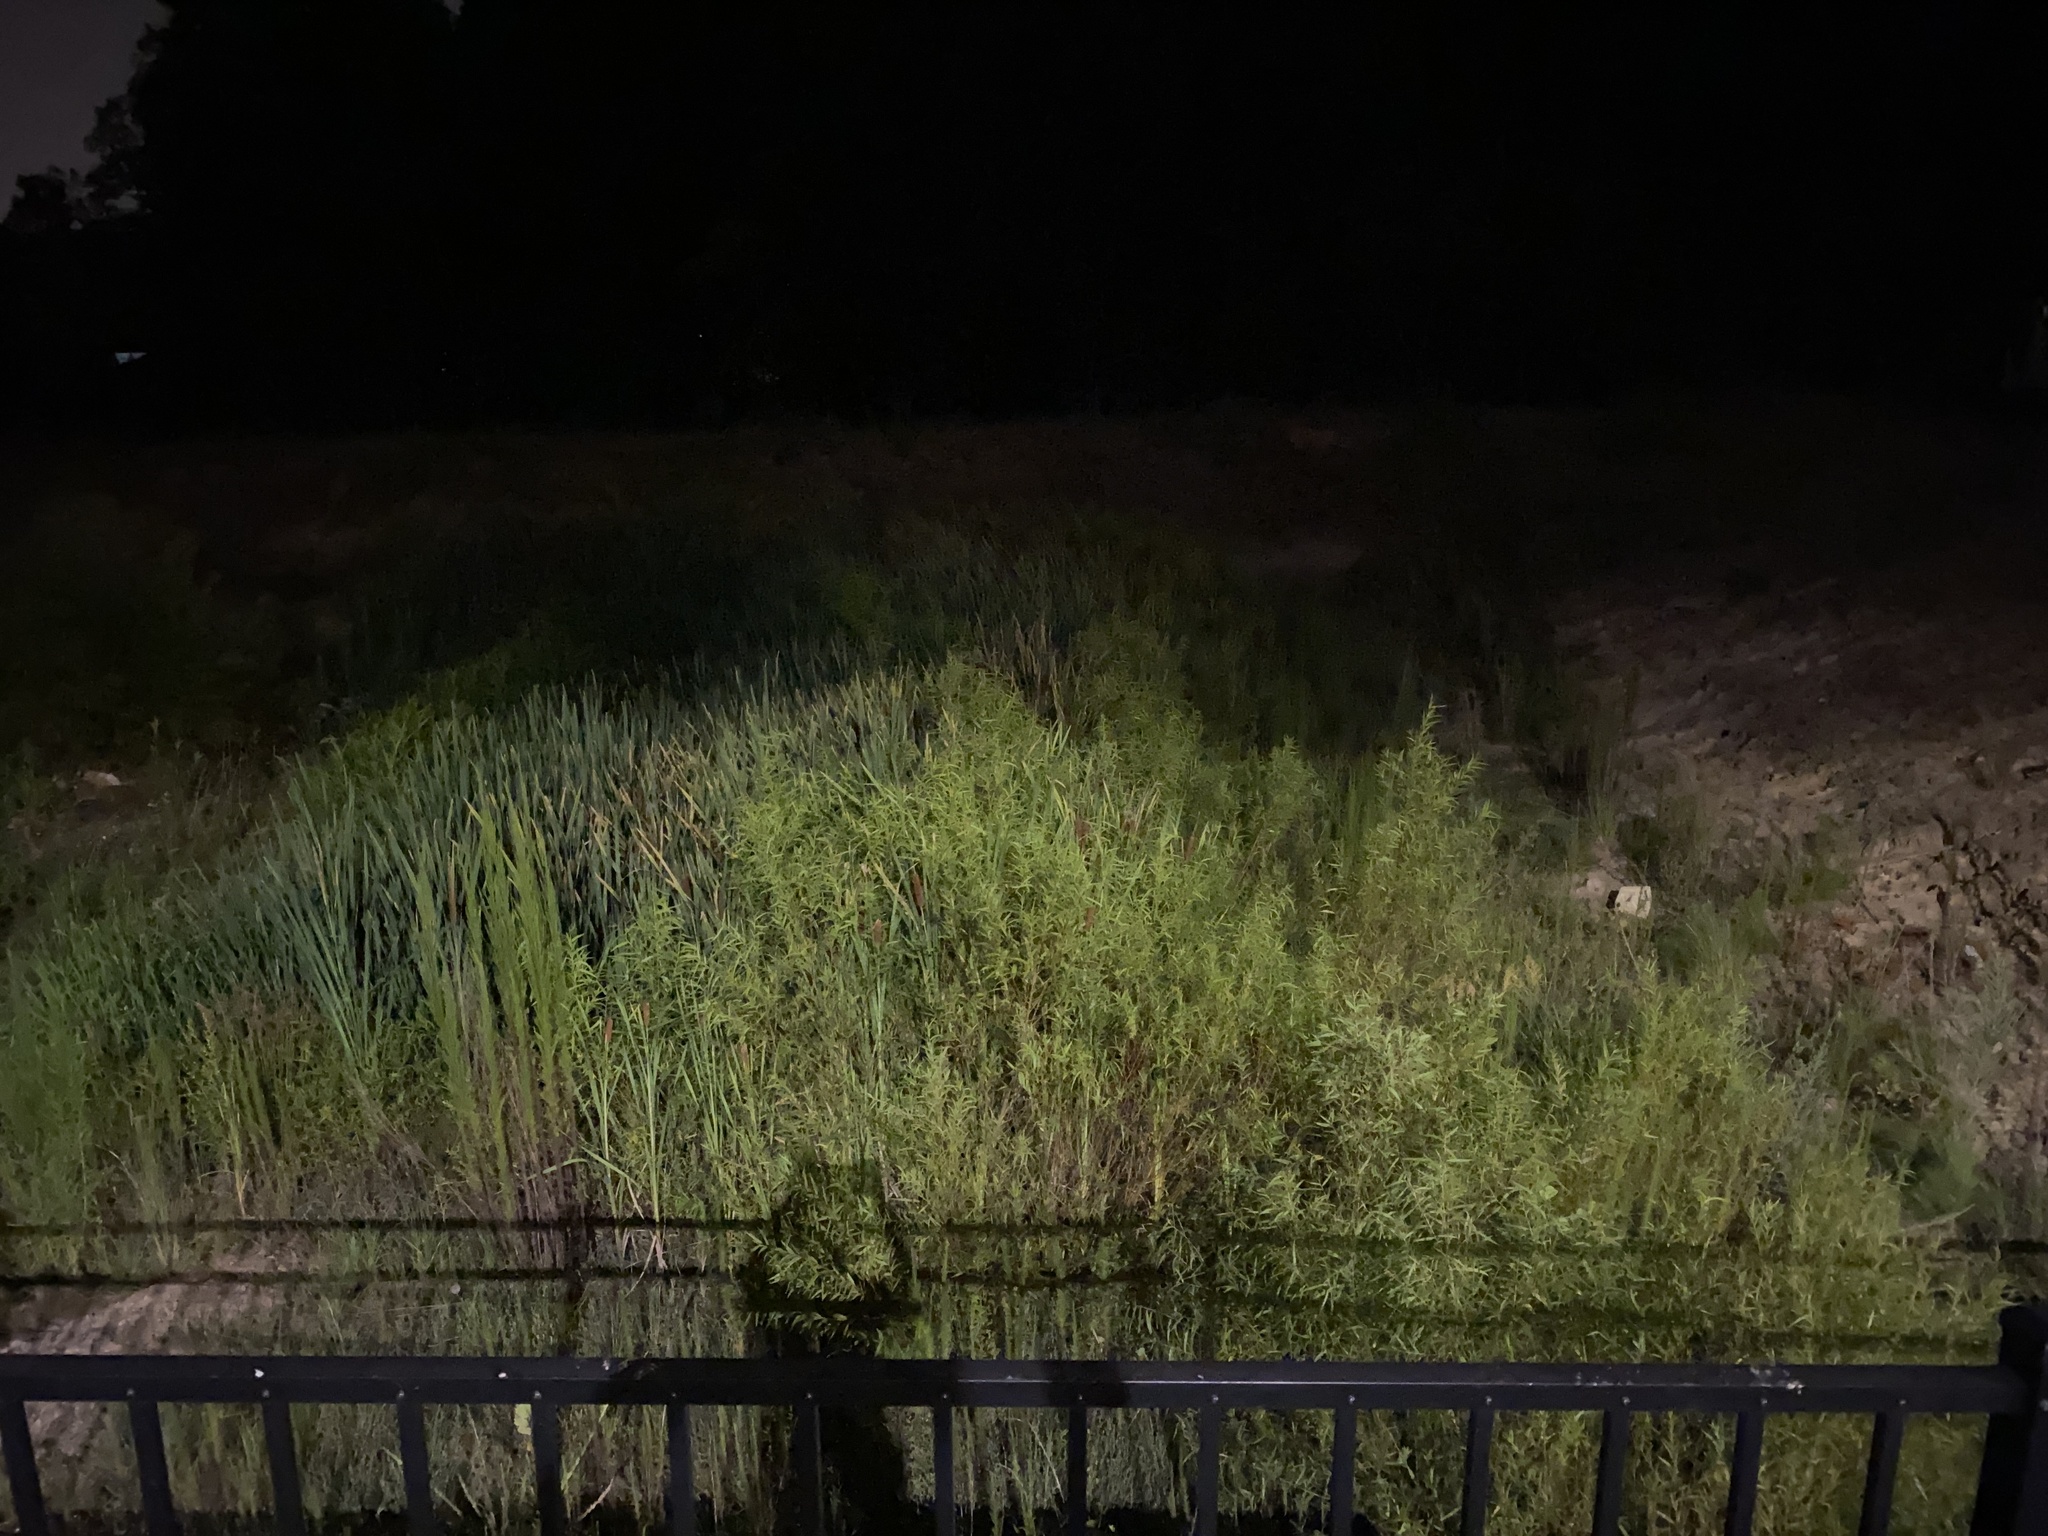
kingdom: Animalia
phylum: Chordata
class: Amphibia
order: Anura
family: Ranidae
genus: Lithobates
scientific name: Lithobates clamitans
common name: Green frog
